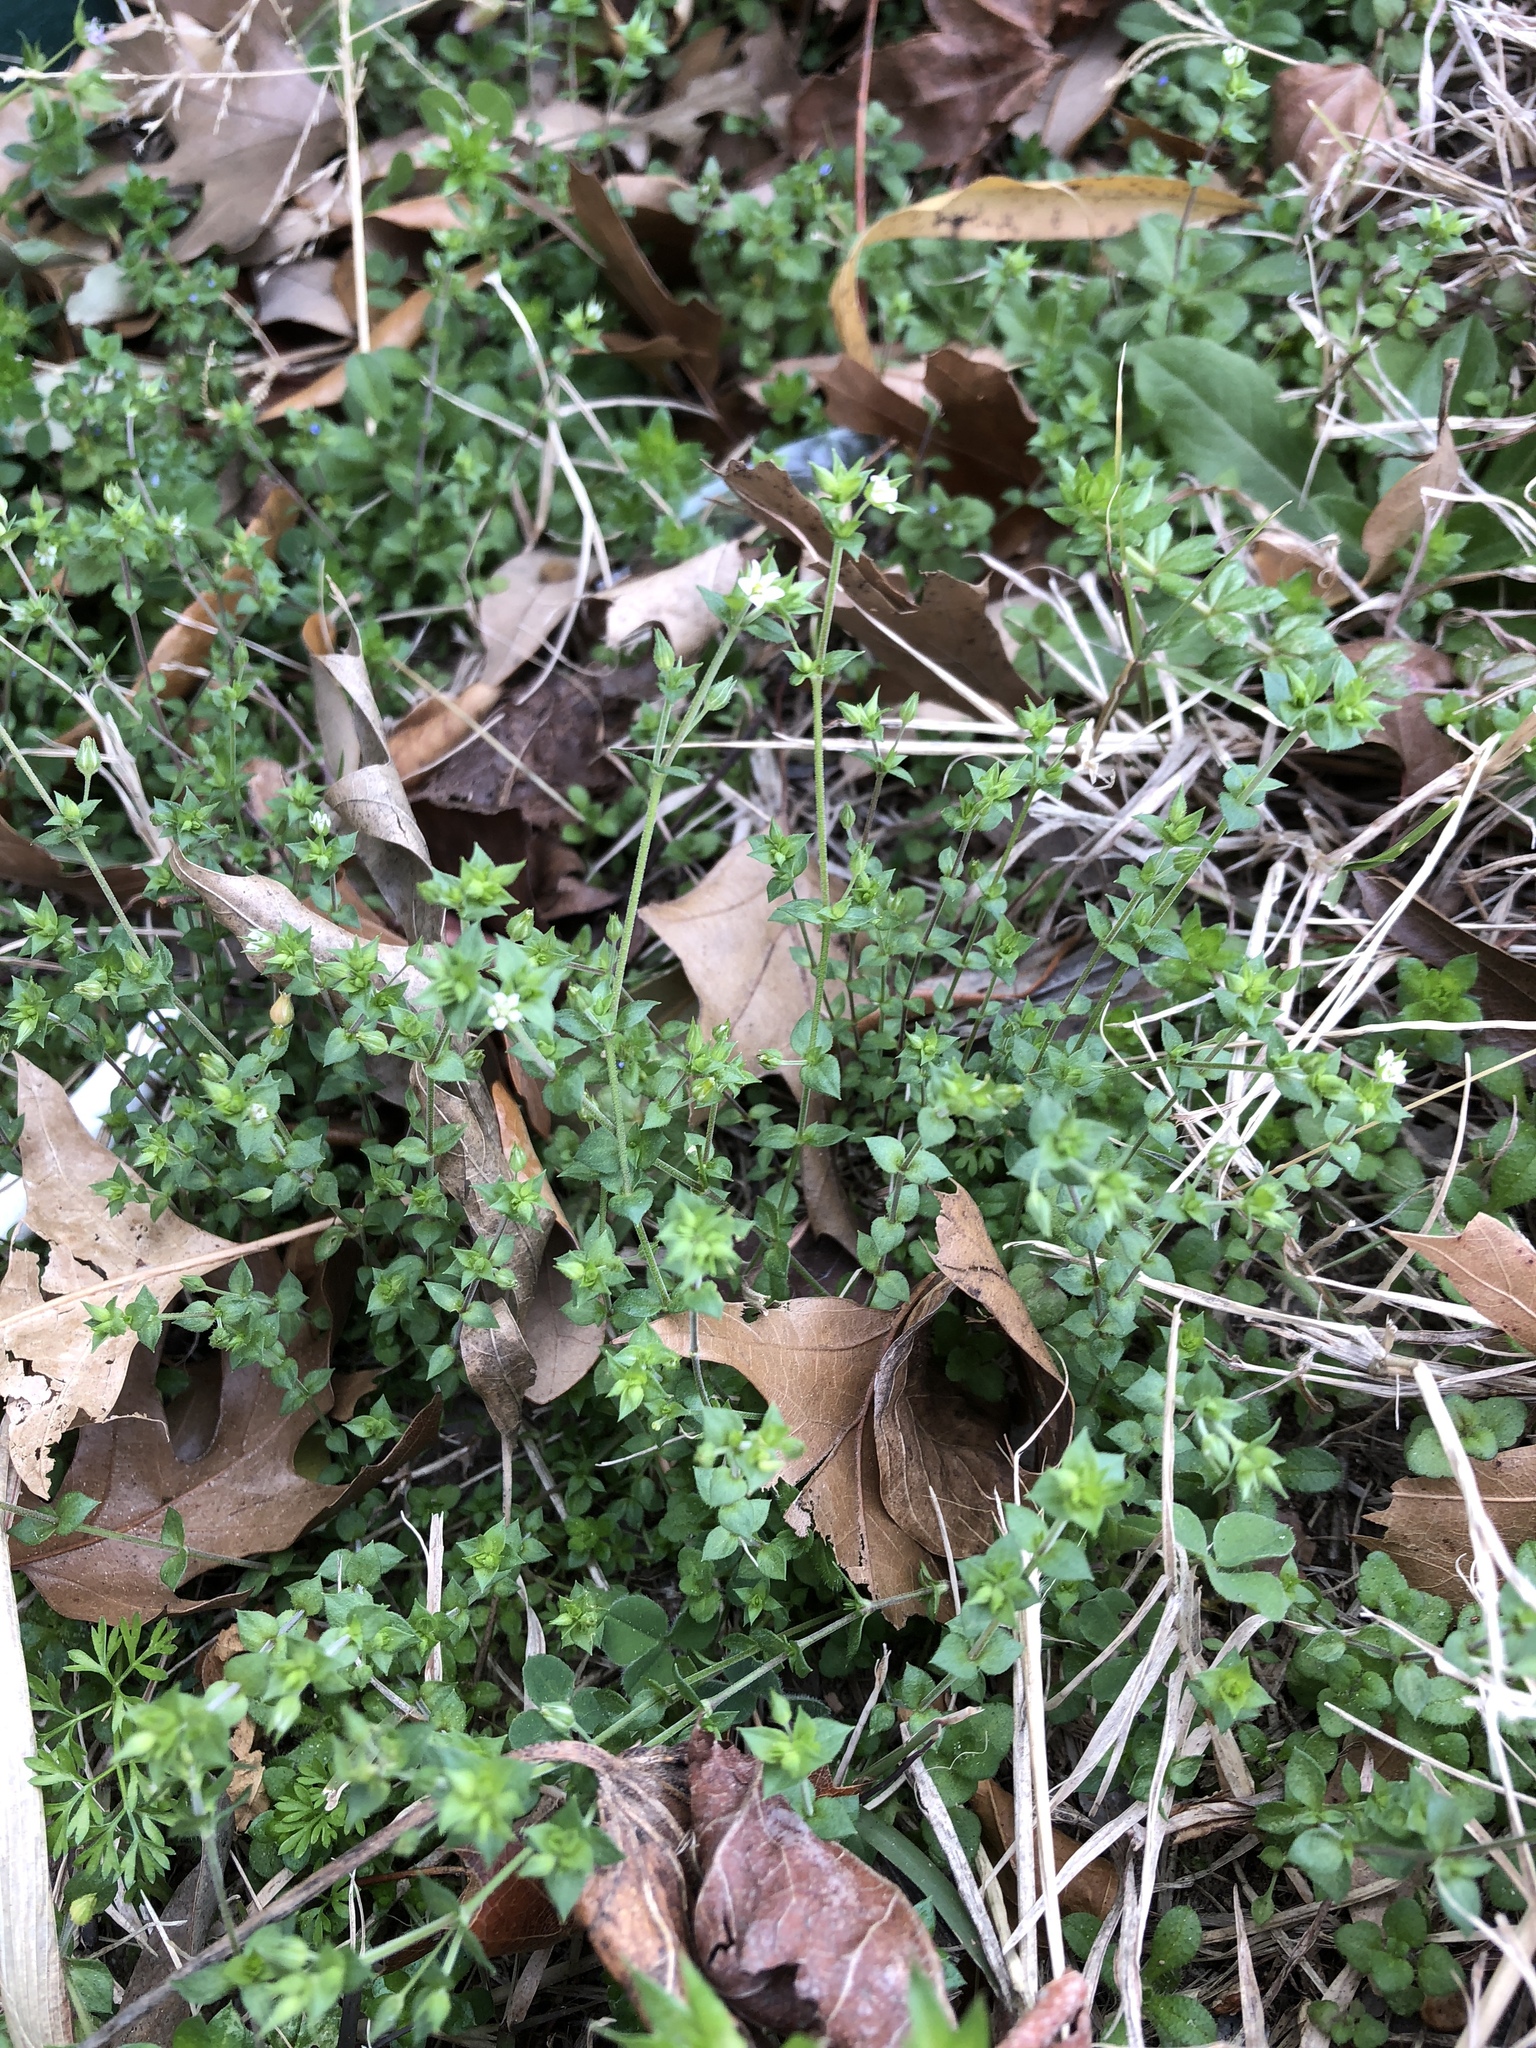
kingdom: Plantae
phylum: Tracheophyta
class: Magnoliopsida
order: Caryophyllales
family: Caryophyllaceae
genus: Arenaria
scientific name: Arenaria serpyllifolia
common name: Thyme-leaved sandwort
